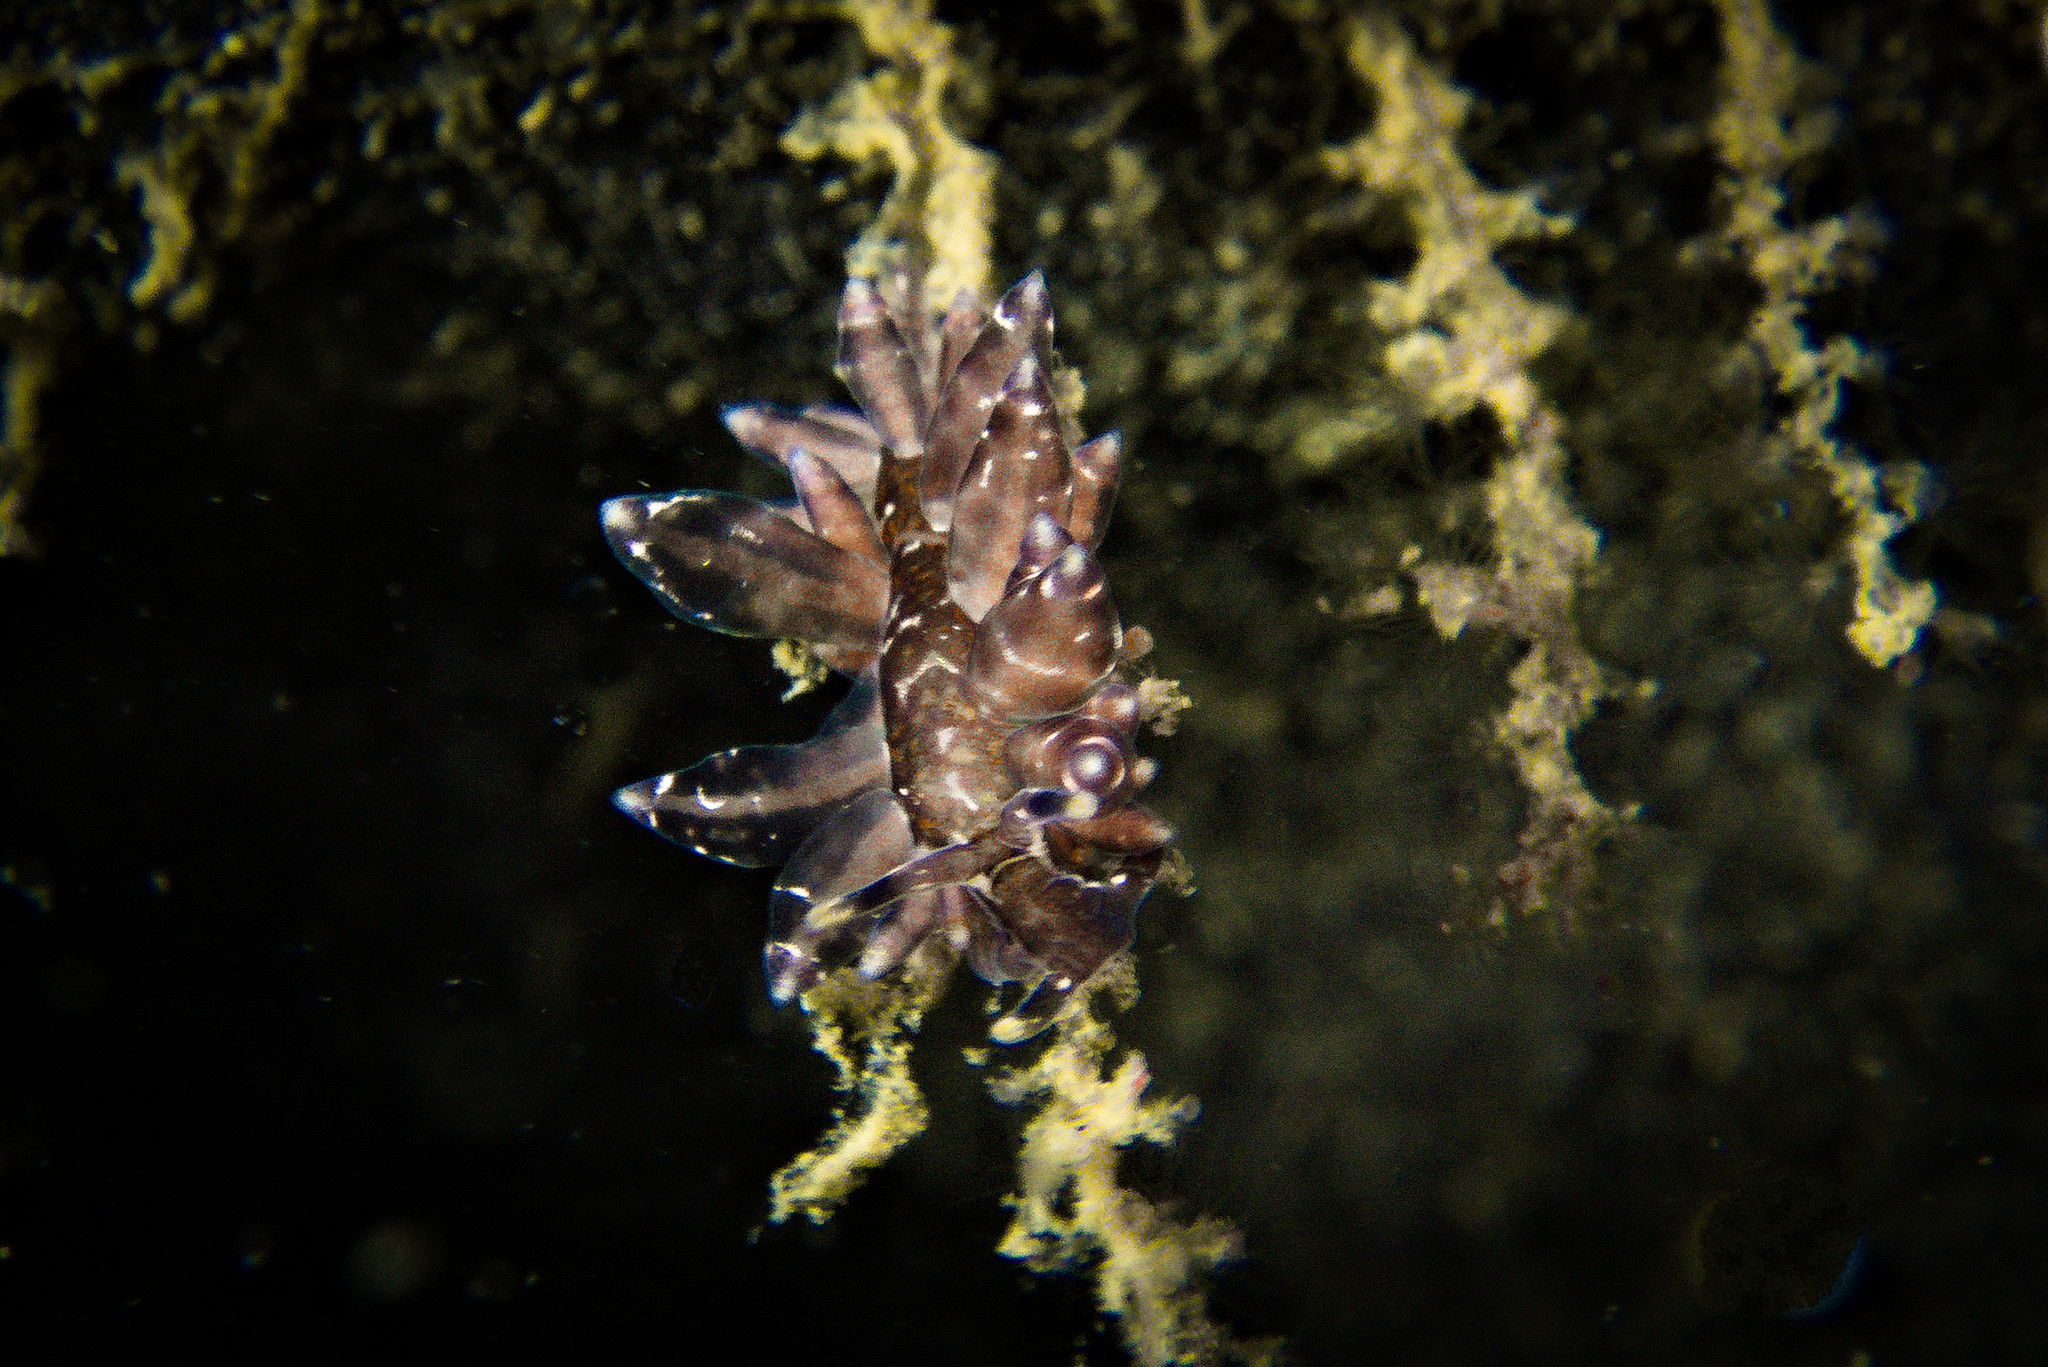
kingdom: Animalia
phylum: Mollusca
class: Gastropoda
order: Nudibranchia
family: Eubranchidae
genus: Amphorina
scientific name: Amphorina viriola
